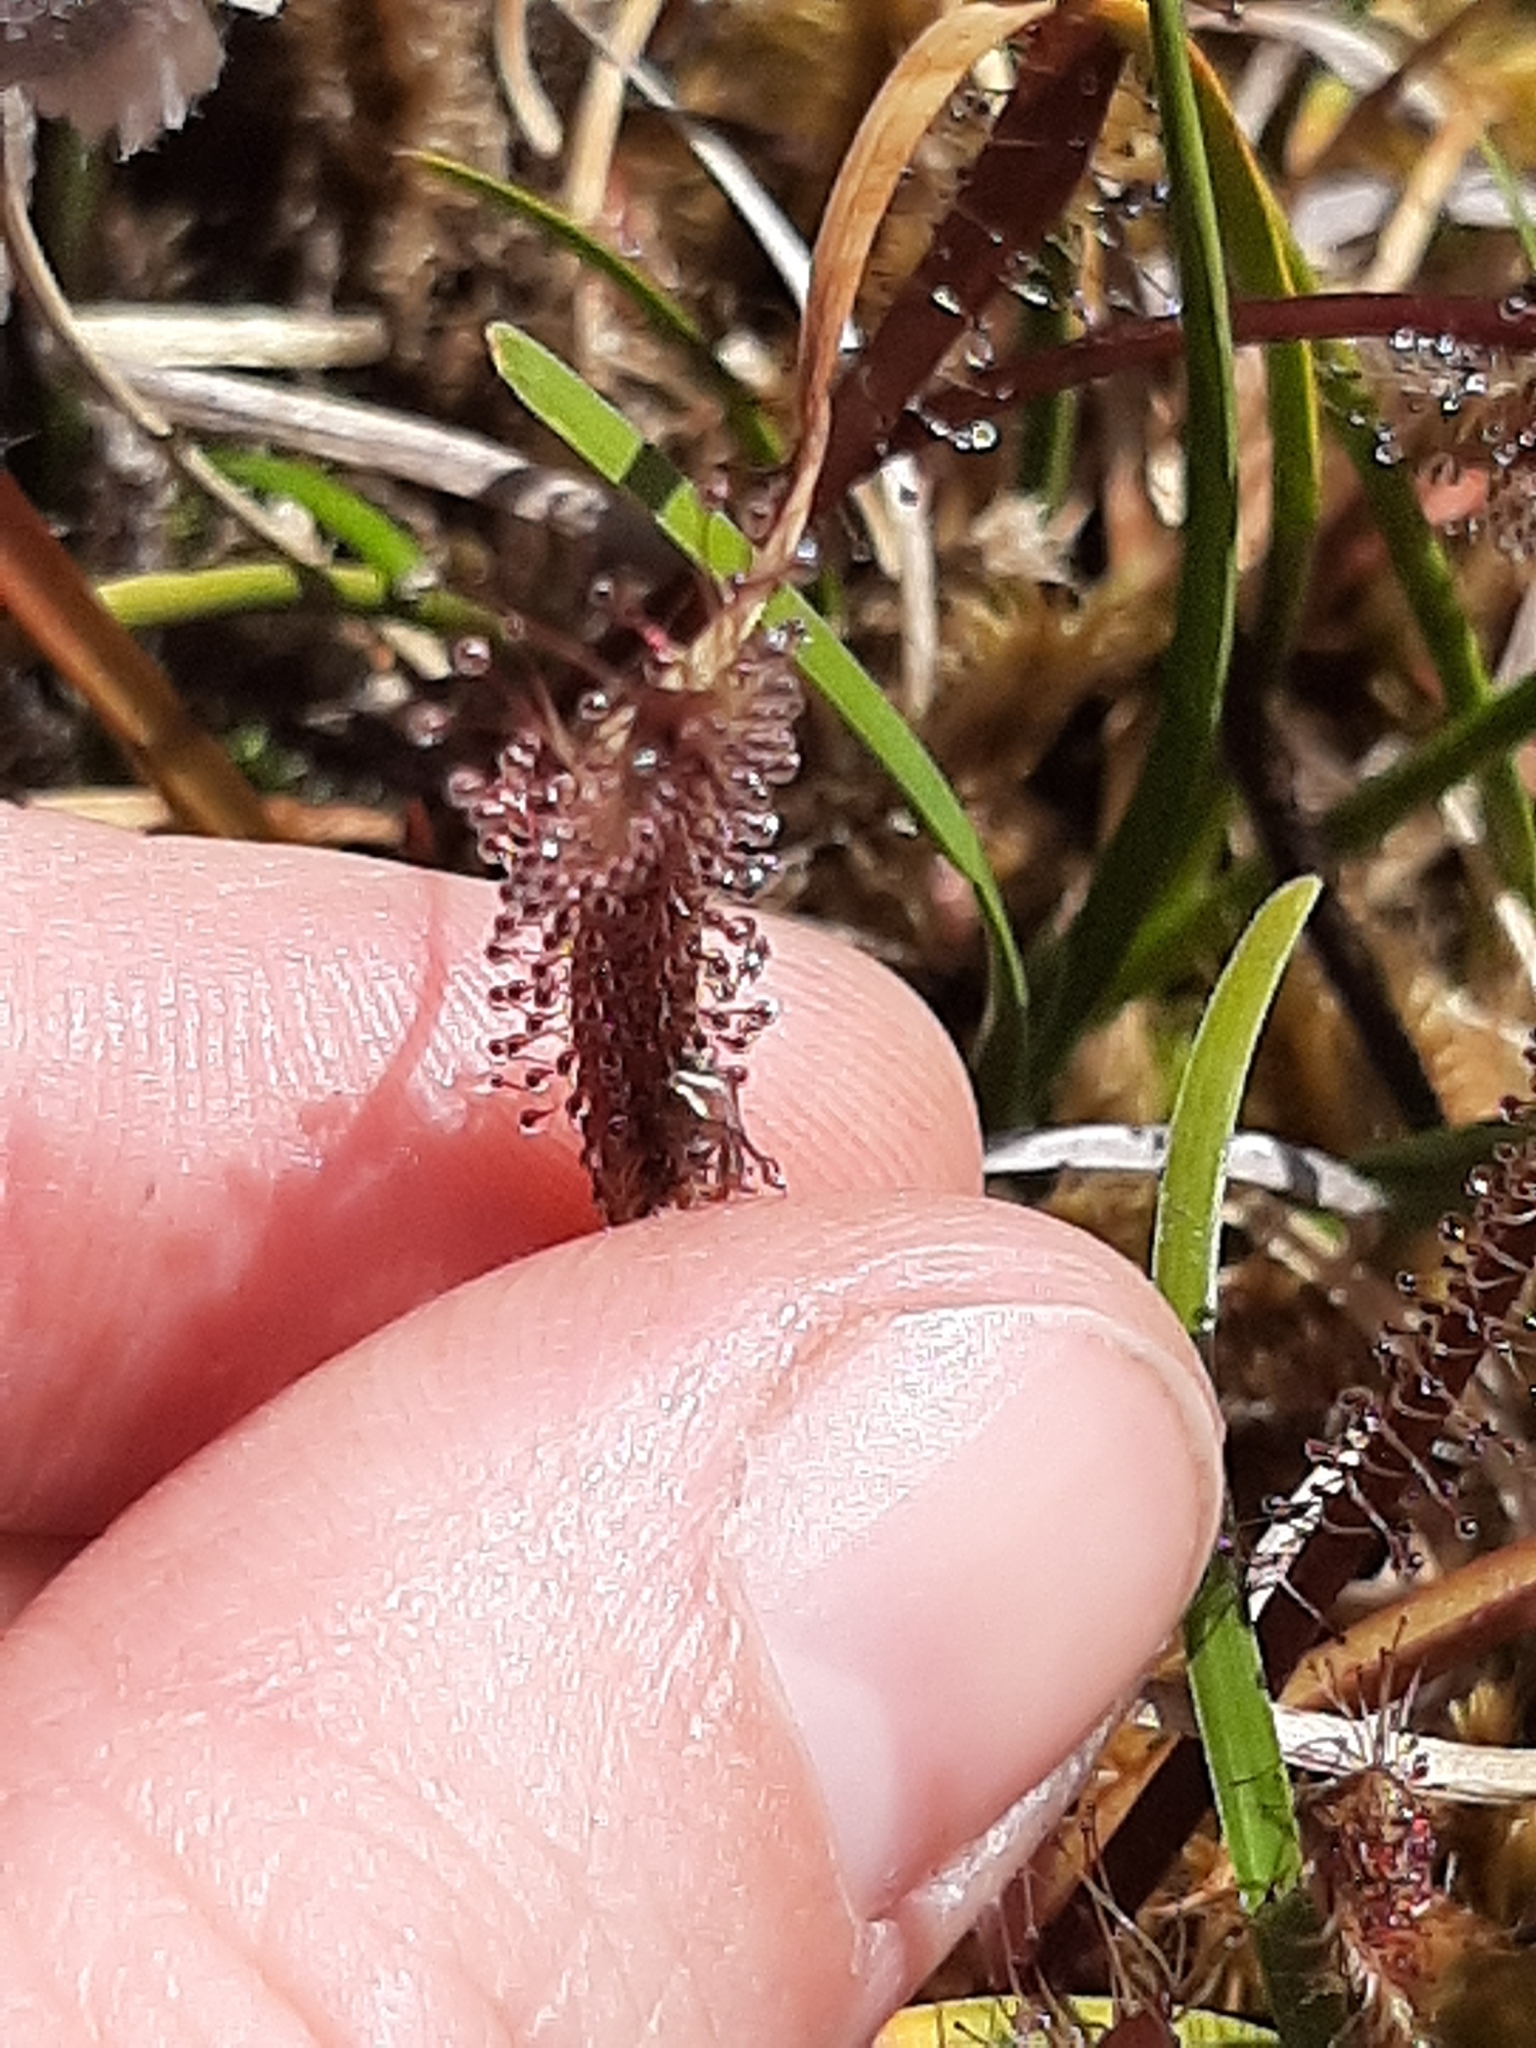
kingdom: Plantae
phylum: Tracheophyta
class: Magnoliopsida
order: Caryophyllales
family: Droseraceae
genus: Drosera
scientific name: Drosera arcturi
